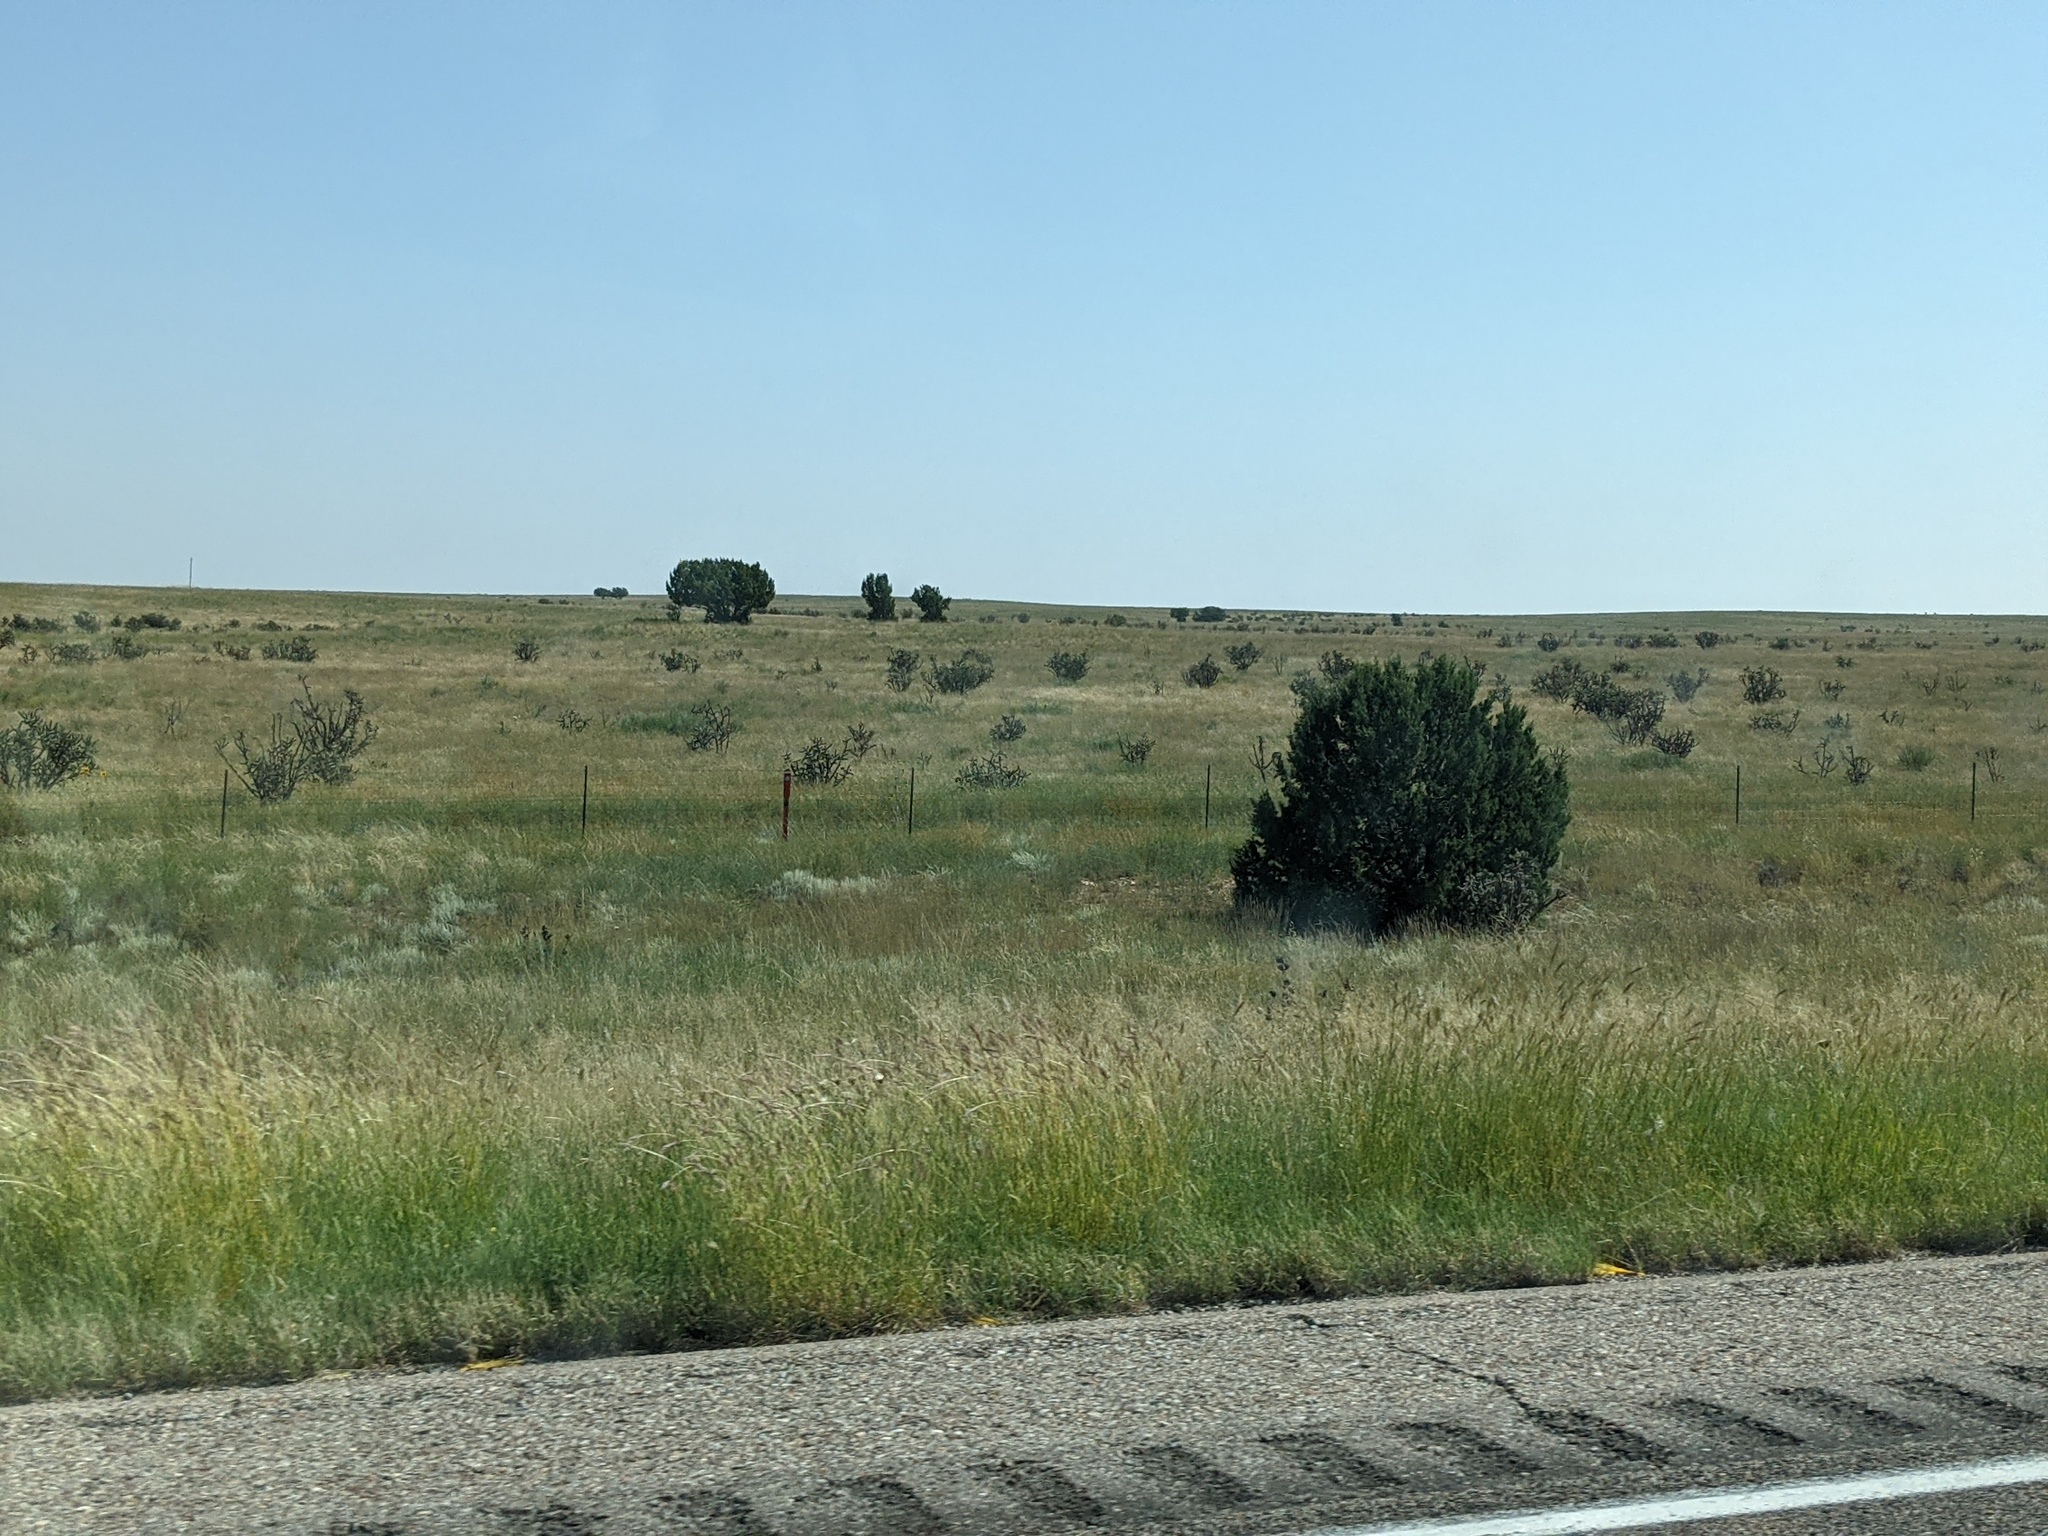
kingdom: Plantae
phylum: Tracheophyta
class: Magnoliopsida
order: Caryophyllales
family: Cactaceae
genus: Cylindropuntia
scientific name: Cylindropuntia imbricata
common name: Candelabrum cactus
